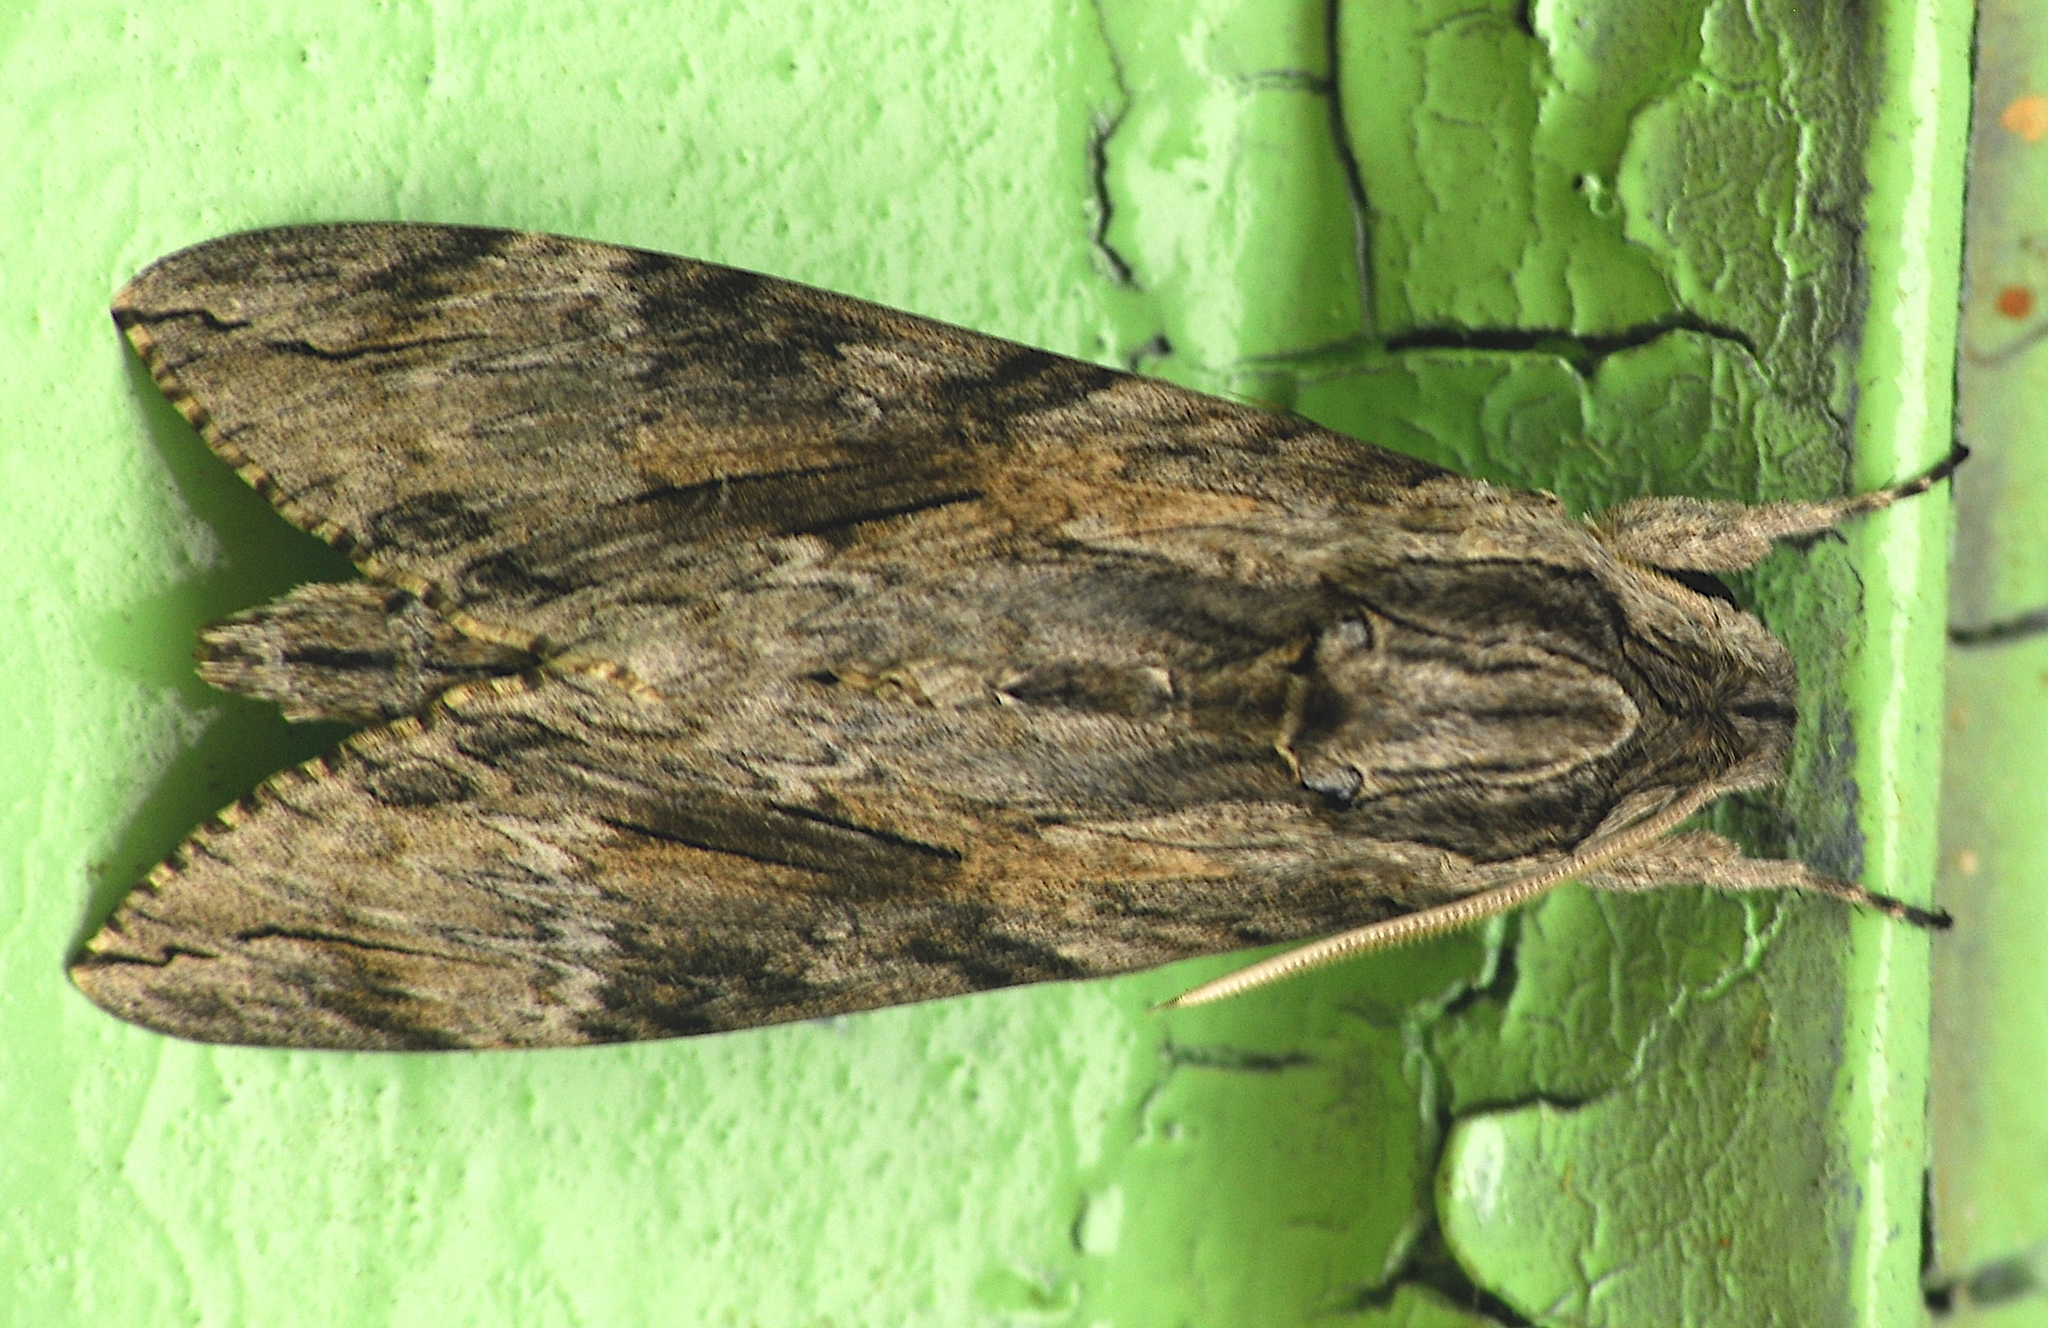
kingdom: Animalia
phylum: Arthropoda
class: Insecta
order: Lepidoptera
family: Sphingidae
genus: Agrius
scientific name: Agrius convolvuli
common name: Convolvulus hawkmoth
